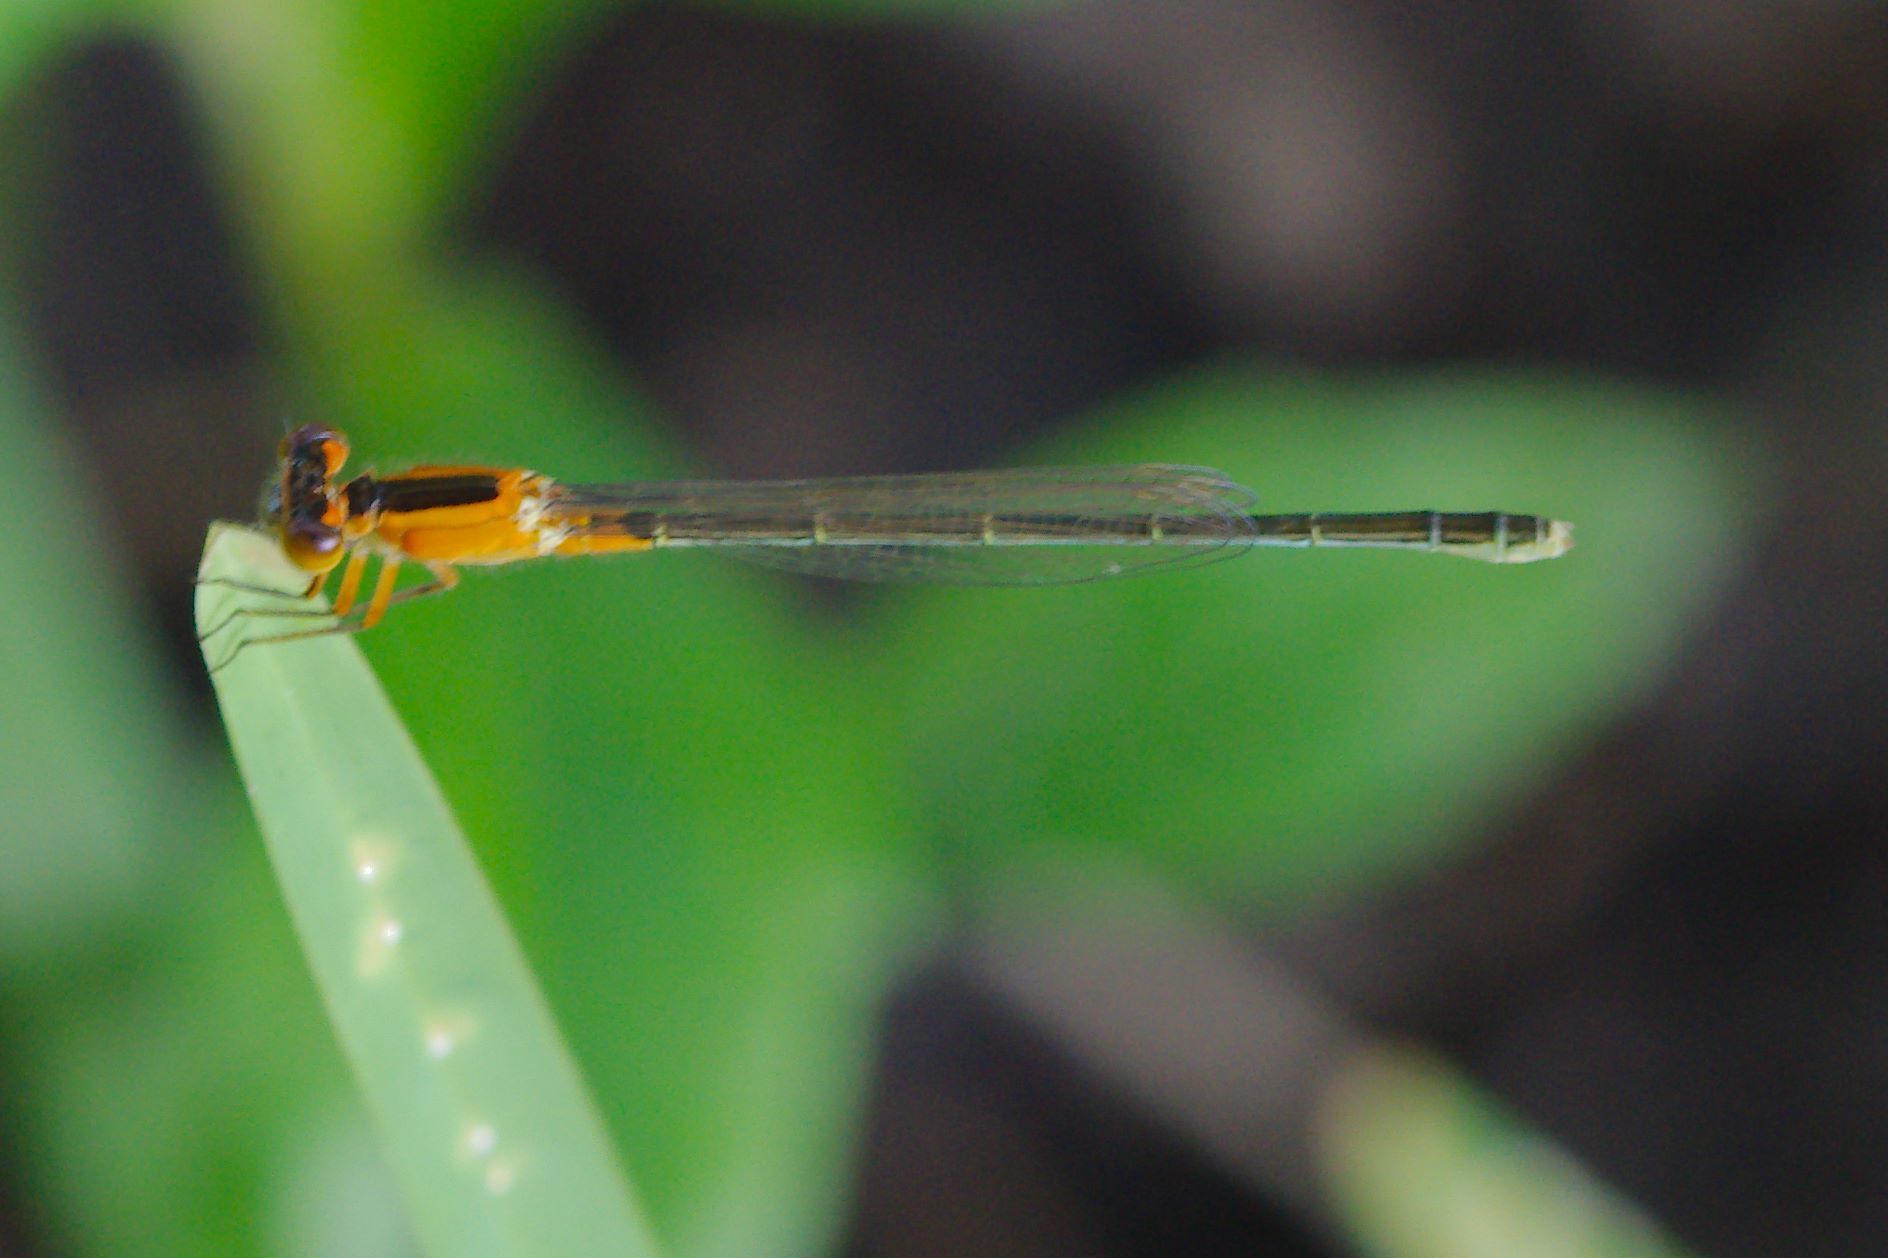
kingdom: Animalia
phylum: Arthropoda
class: Insecta
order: Odonata
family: Coenagrionidae
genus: Ischnura
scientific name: Ischnura ramburii
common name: Rambur's forktail
